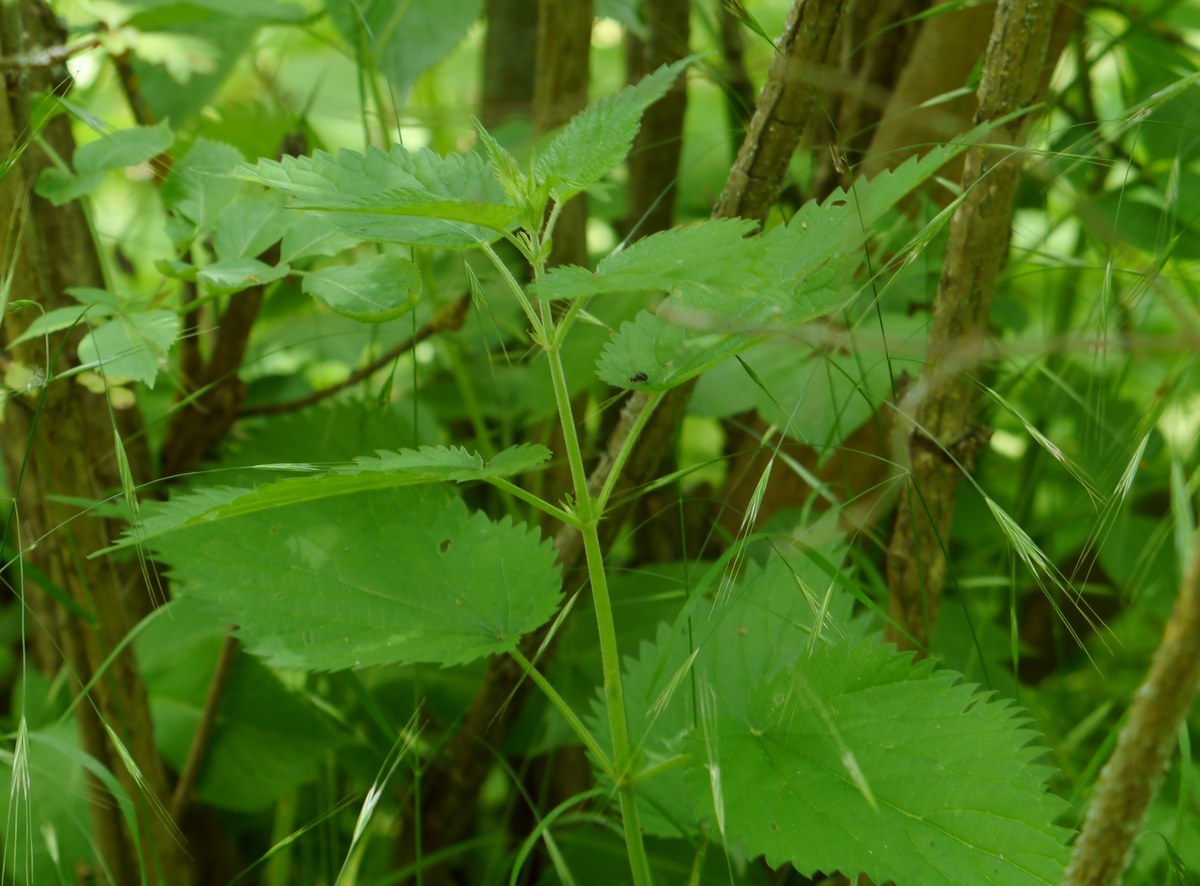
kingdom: Plantae
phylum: Tracheophyta
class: Magnoliopsida
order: Rosales
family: Urticaceae
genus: Urtica
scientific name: Urtica dioica
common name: Common nettle
